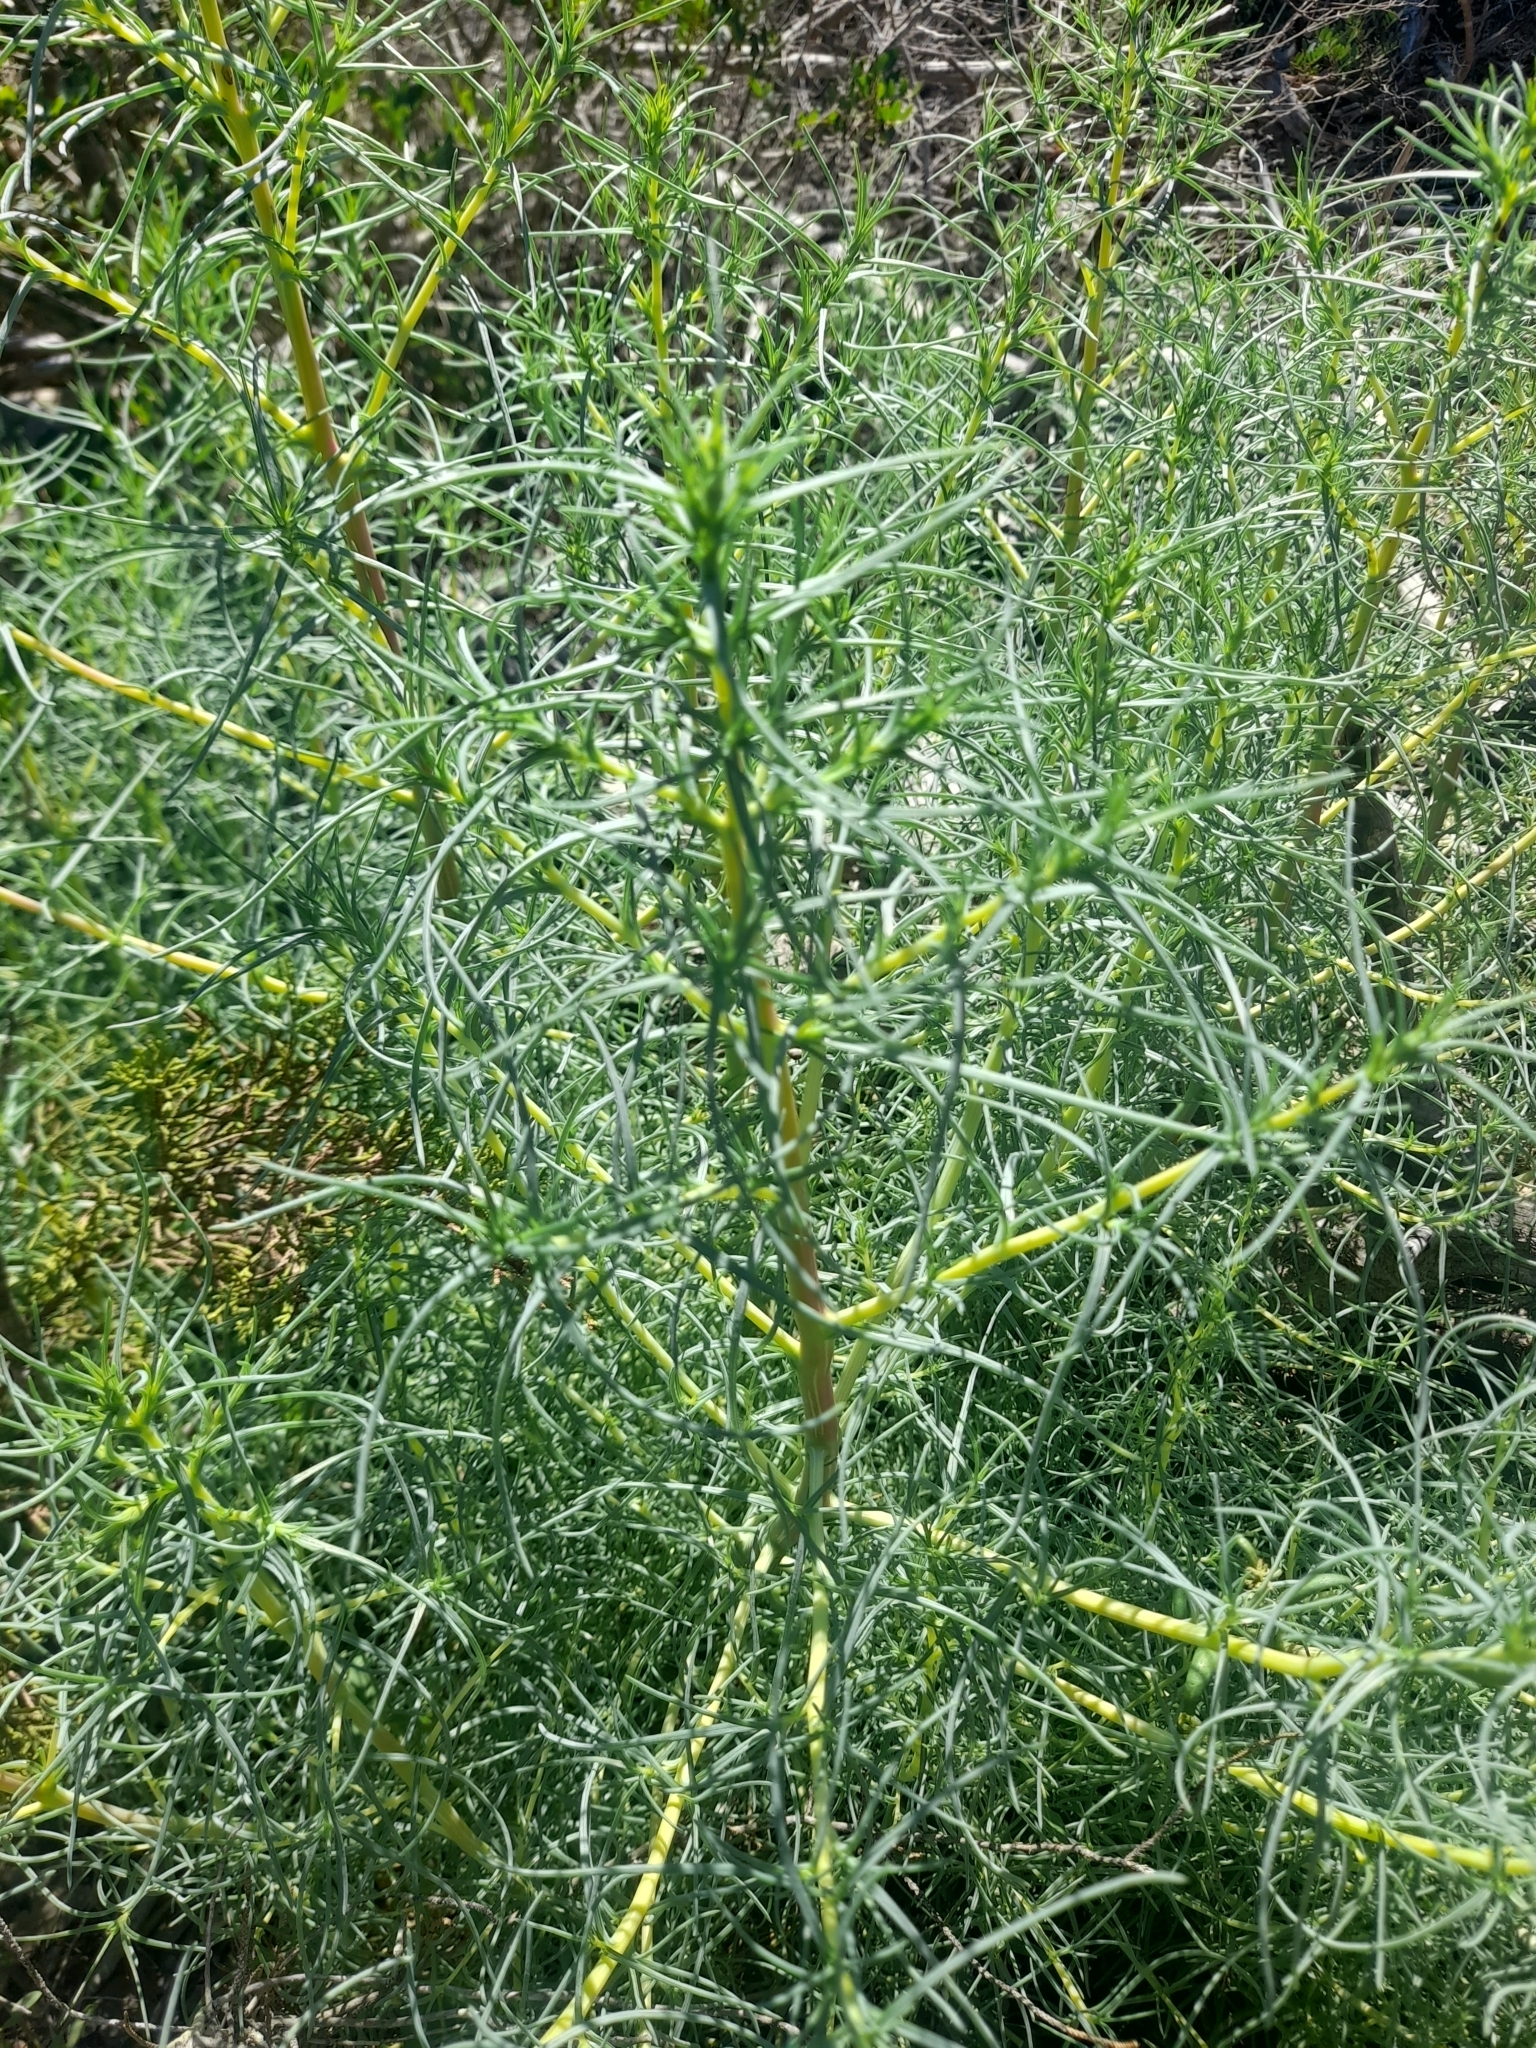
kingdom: Plantae
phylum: Tracheophyta
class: Magnoliopsida
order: Caryophyllales
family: Amaranthaceae
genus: Salsola
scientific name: Salsola soda
